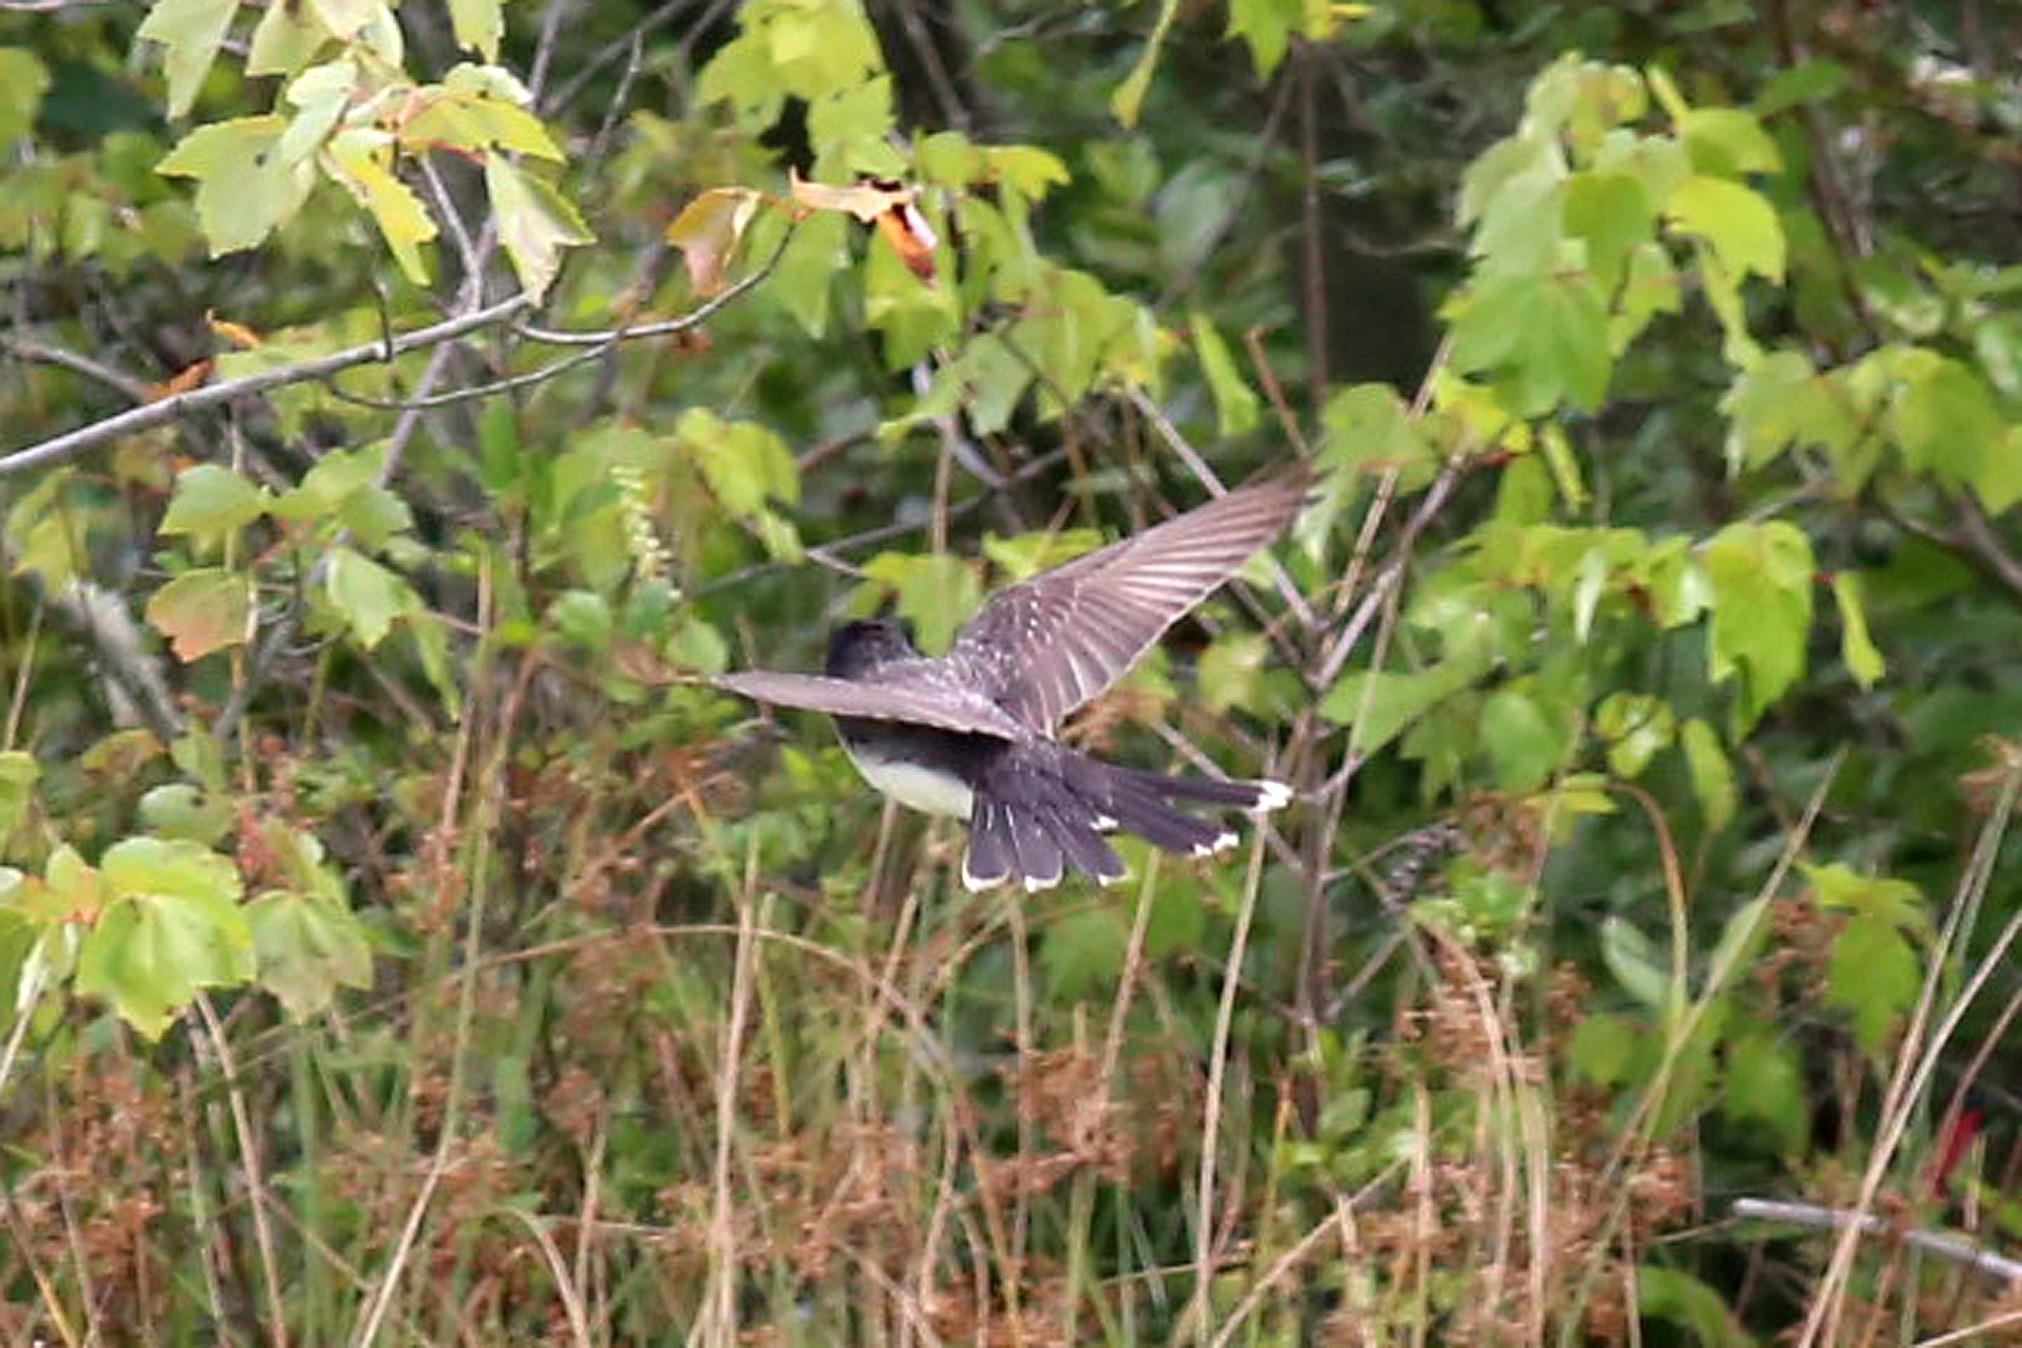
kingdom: Animalia
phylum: Chordata
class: Aves
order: Passeriformes
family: Tyrannidae
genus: Tyrannus
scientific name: Tyrannus tyrannus
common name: Eastern kingbird
